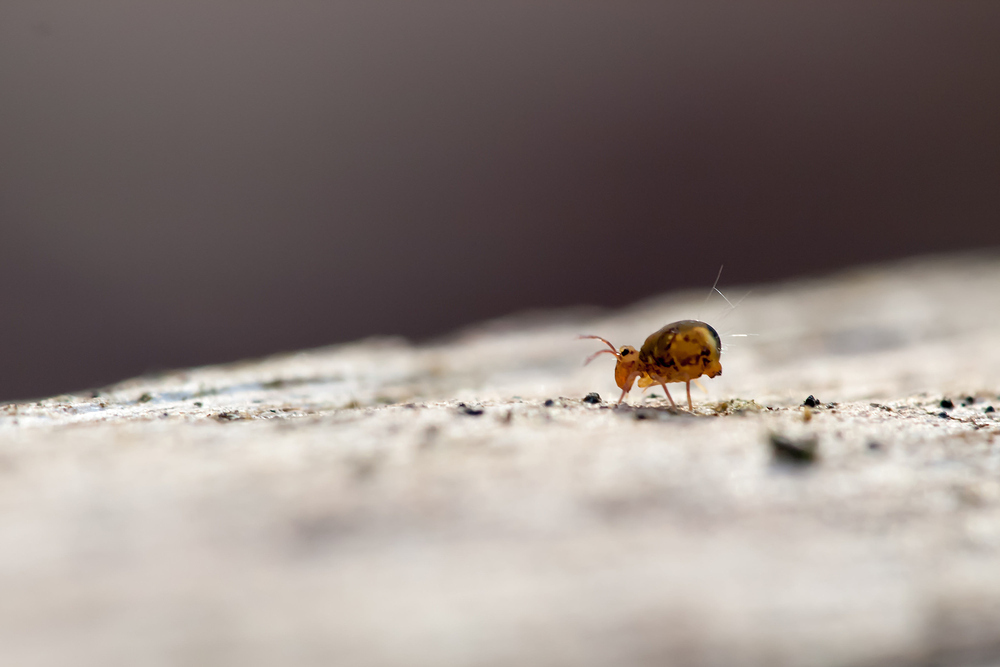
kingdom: Animalia
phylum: Arthropoda
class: Collembola
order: Symphypleona
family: Dicyrtomidae
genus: Dicyrtomina
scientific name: Dicyrtomina ornata
